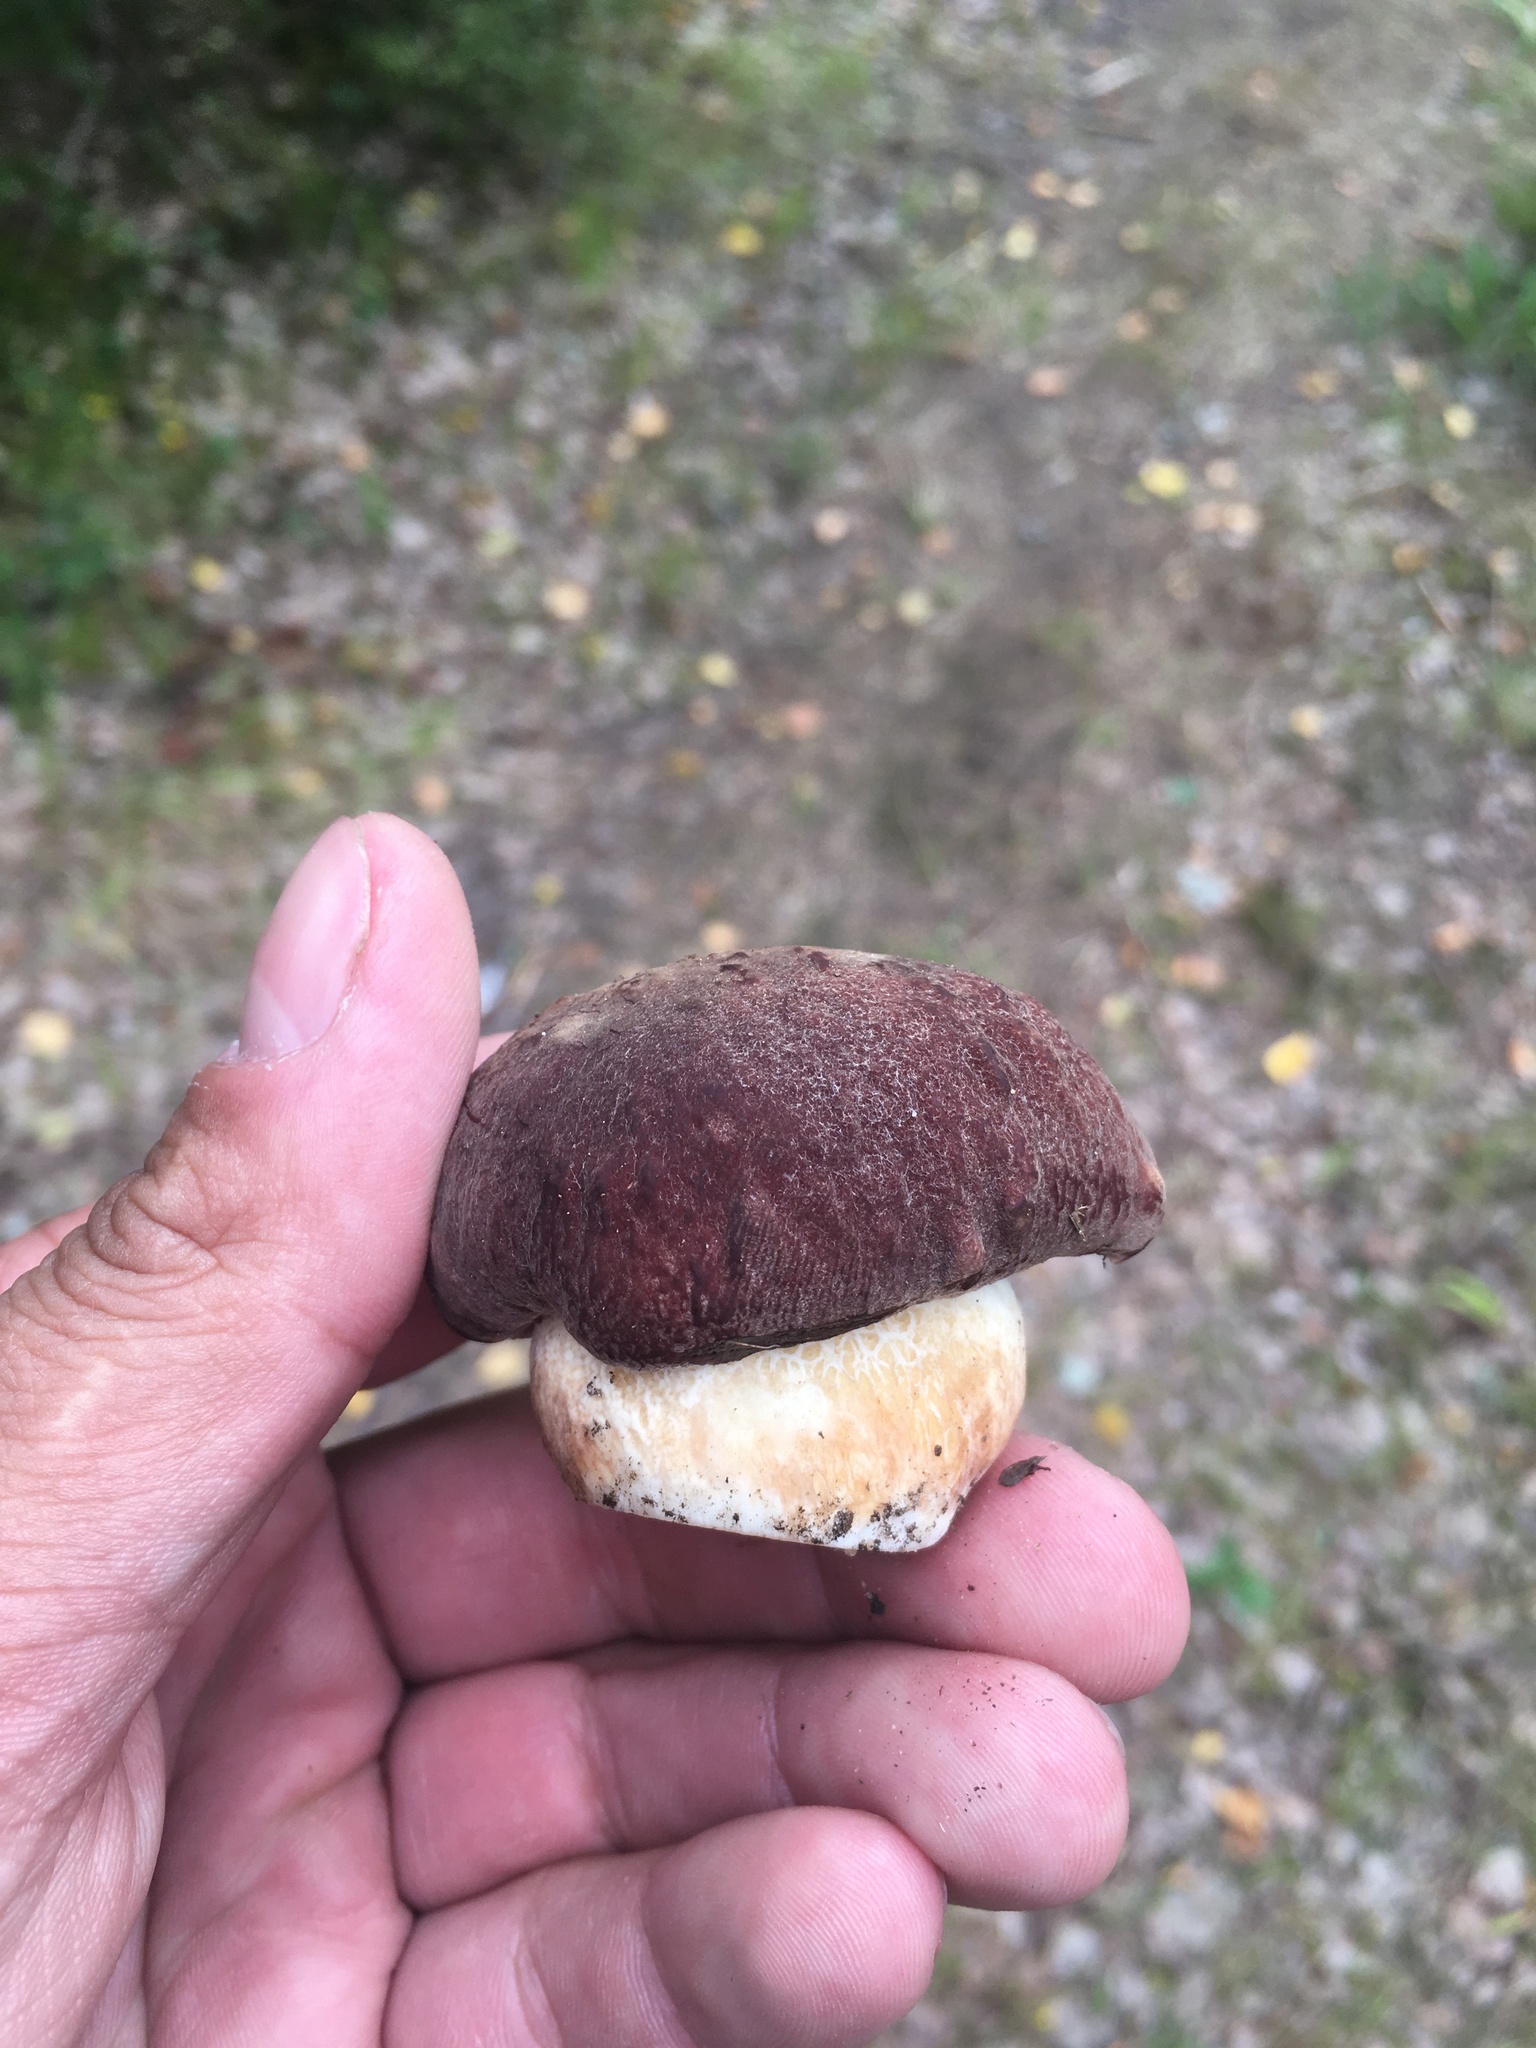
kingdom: Fungi
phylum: Basidiomycota
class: Agaricomycetes
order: Boletales
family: Boletaceae
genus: Boletus
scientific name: Boletus pinophilus
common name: Pine bolete
